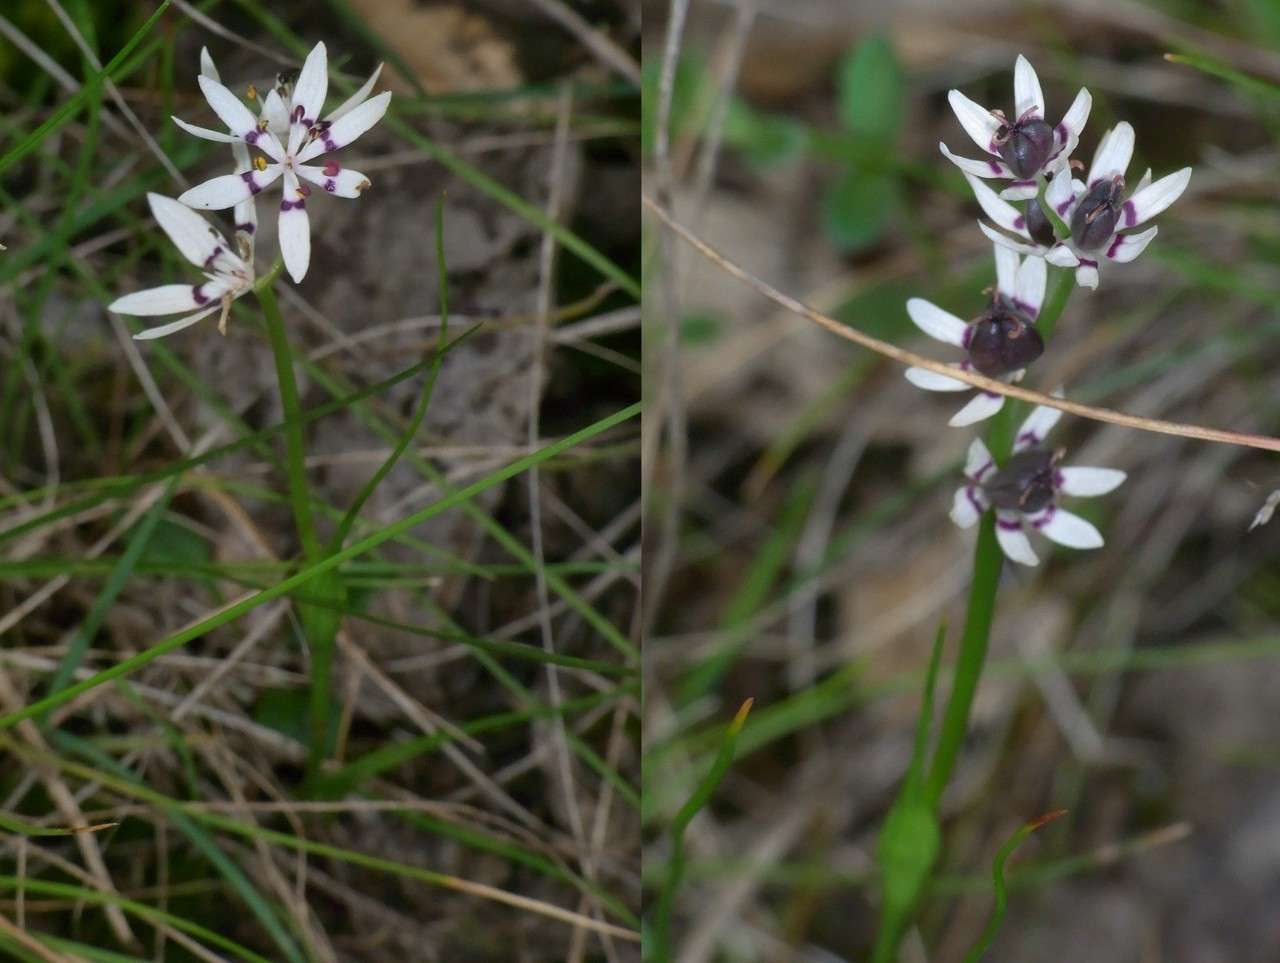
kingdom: Plantae
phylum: Tracheophyta
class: Liliopsida
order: Liliales
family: Colchicaceae
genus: Wurmbea
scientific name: Wurmbea dioica
